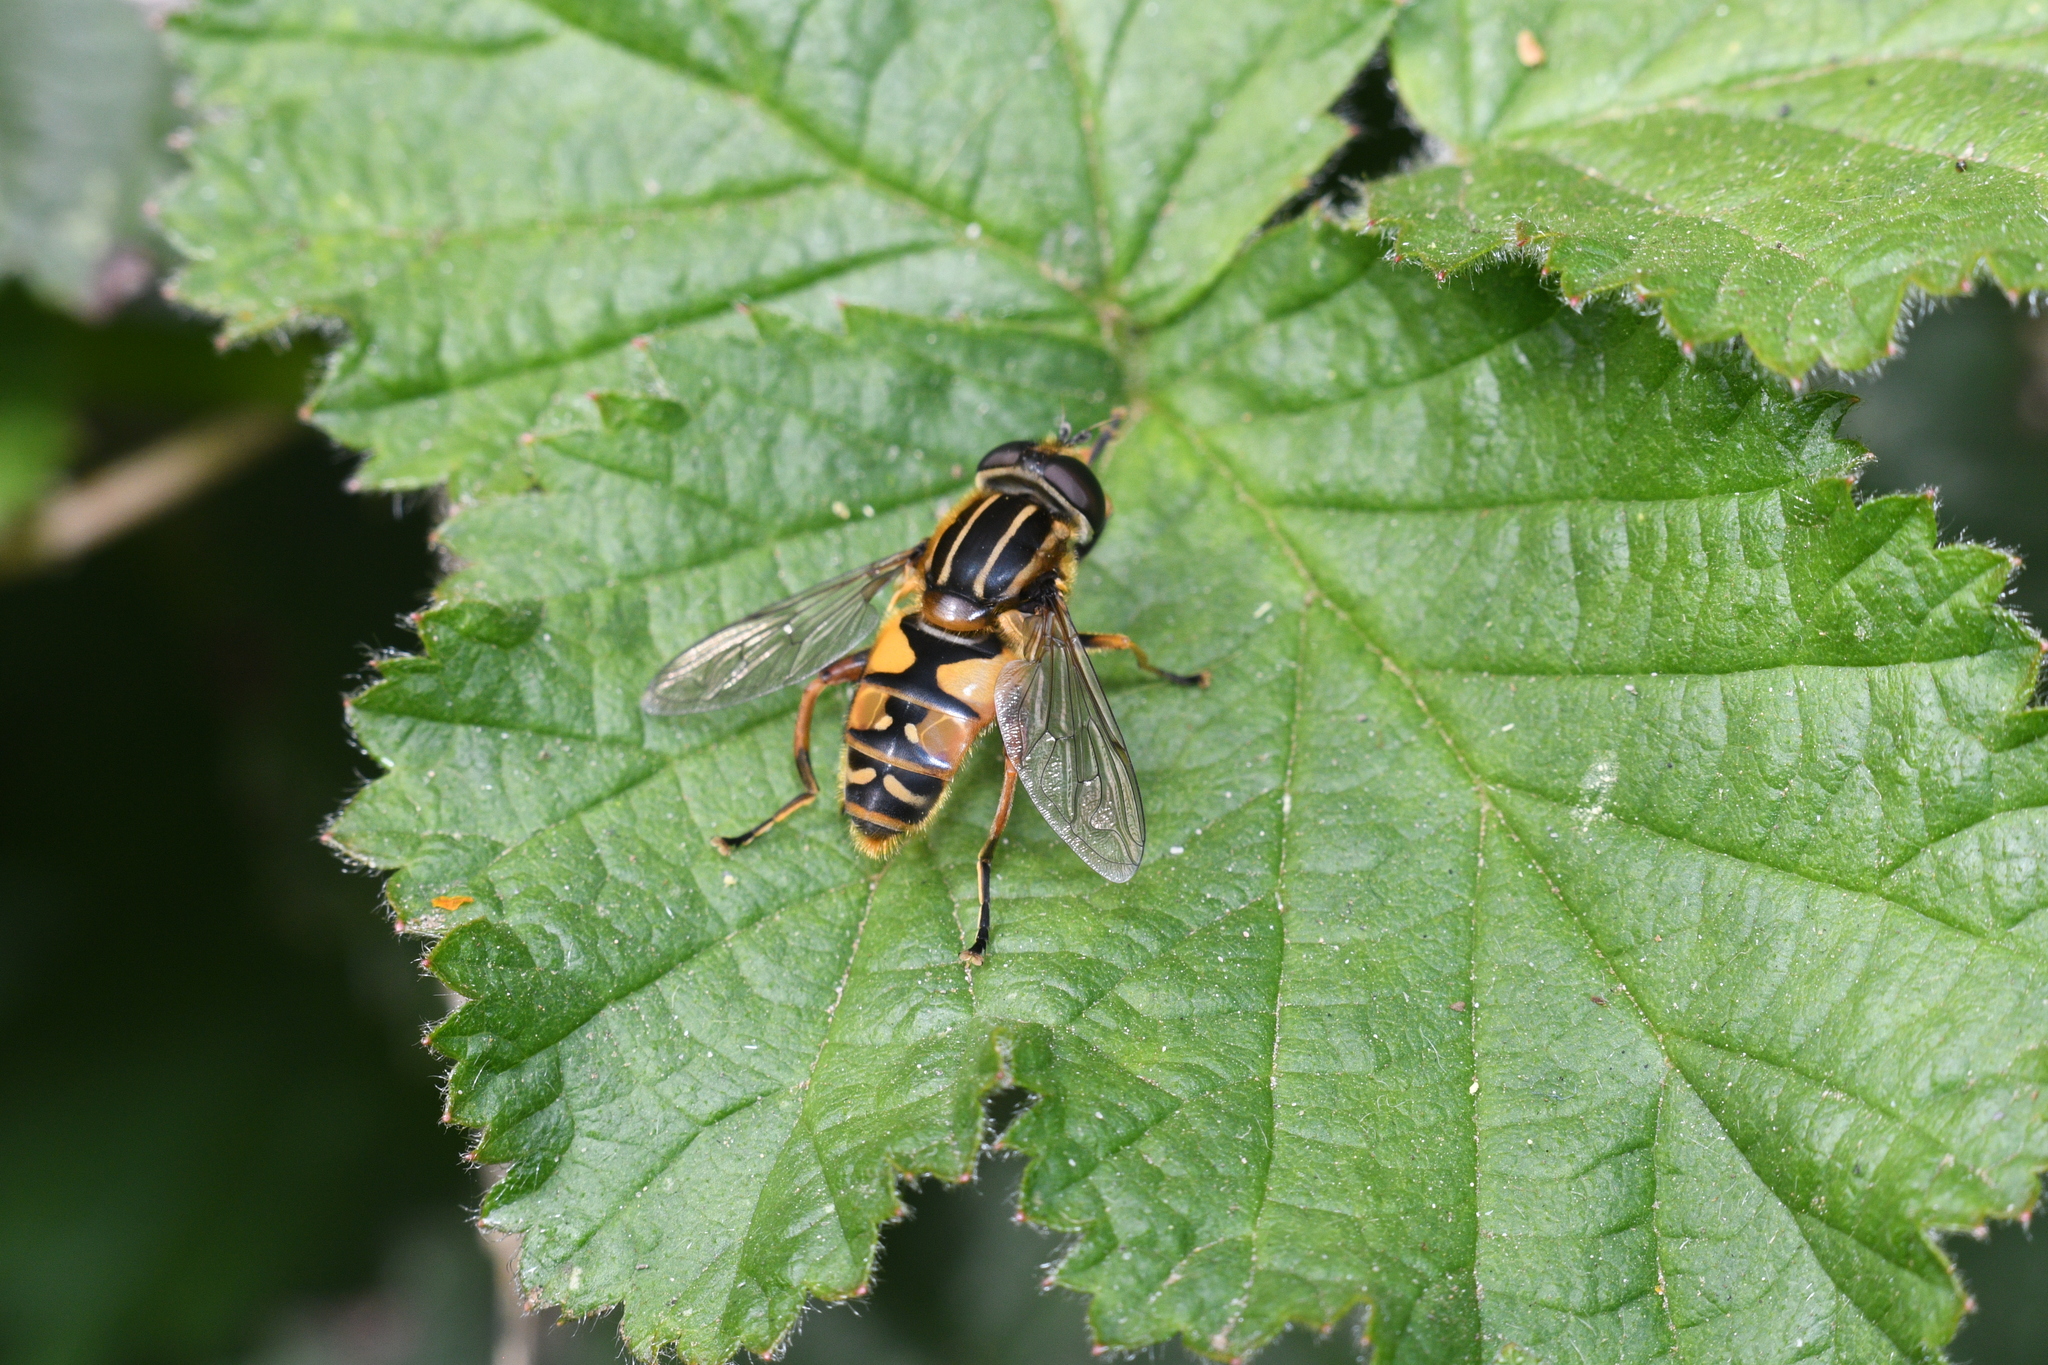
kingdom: Animalia
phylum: Arthropoda
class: Insecta
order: Diptera
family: Syrphidae
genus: Helophilus
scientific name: Helophilus pendulus
